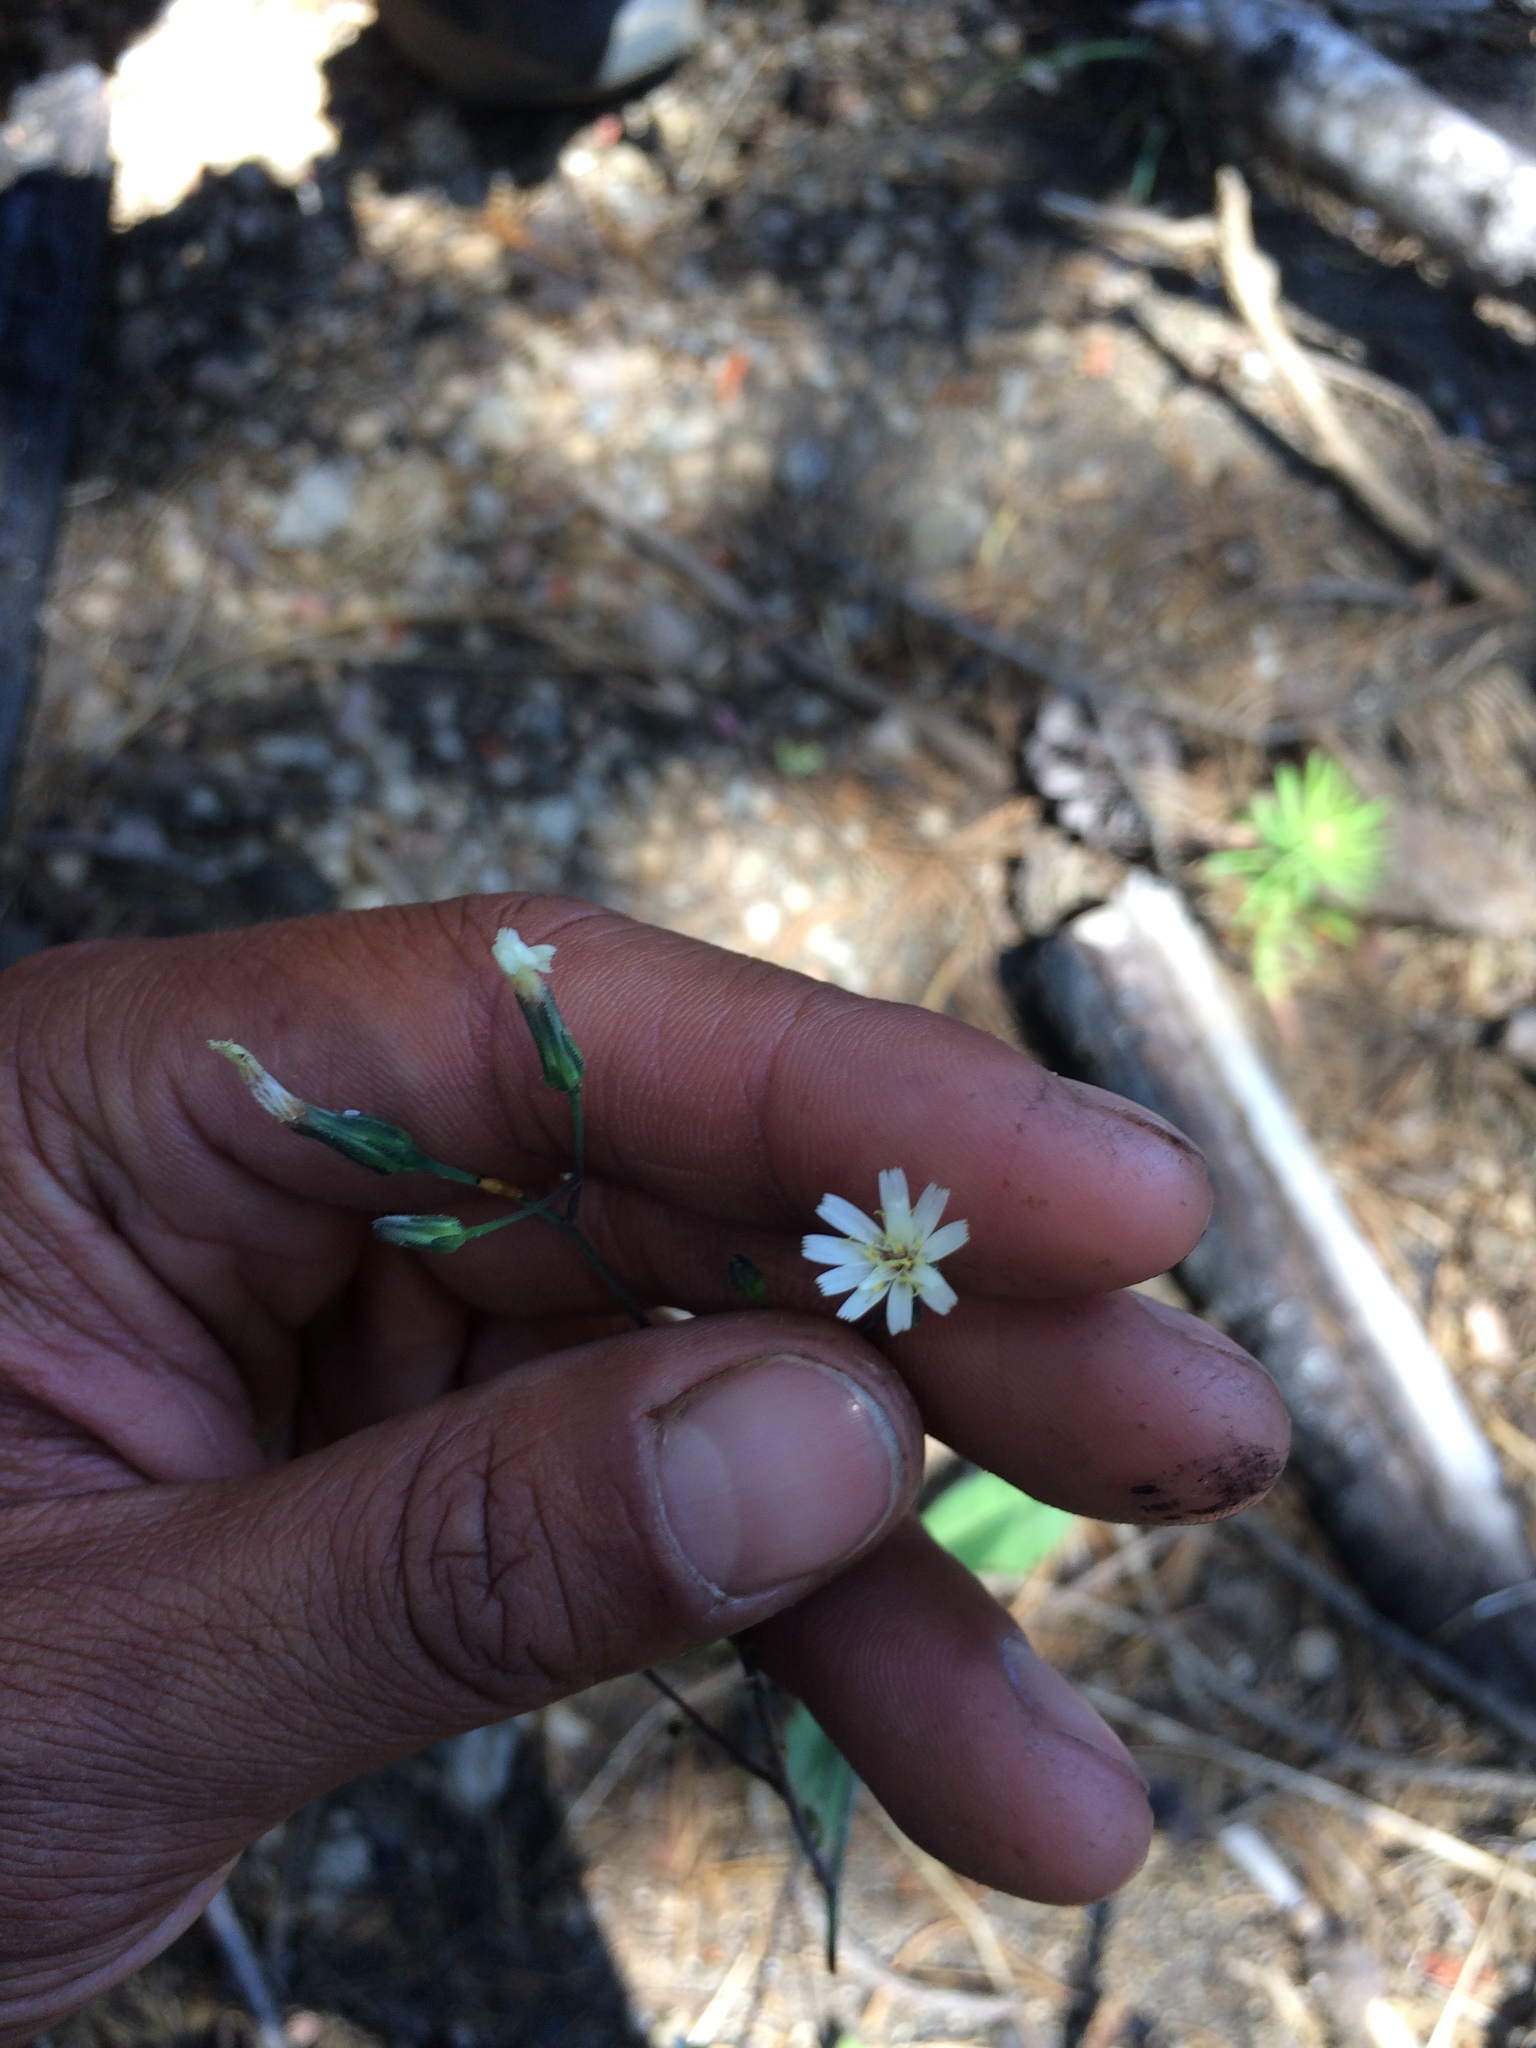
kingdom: Plantae
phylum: Tracheophyta
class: Magnoliopsida
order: Asterales
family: Asteraceae
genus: Hieracium
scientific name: Hieracium albiflorum
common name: White hawkweed
